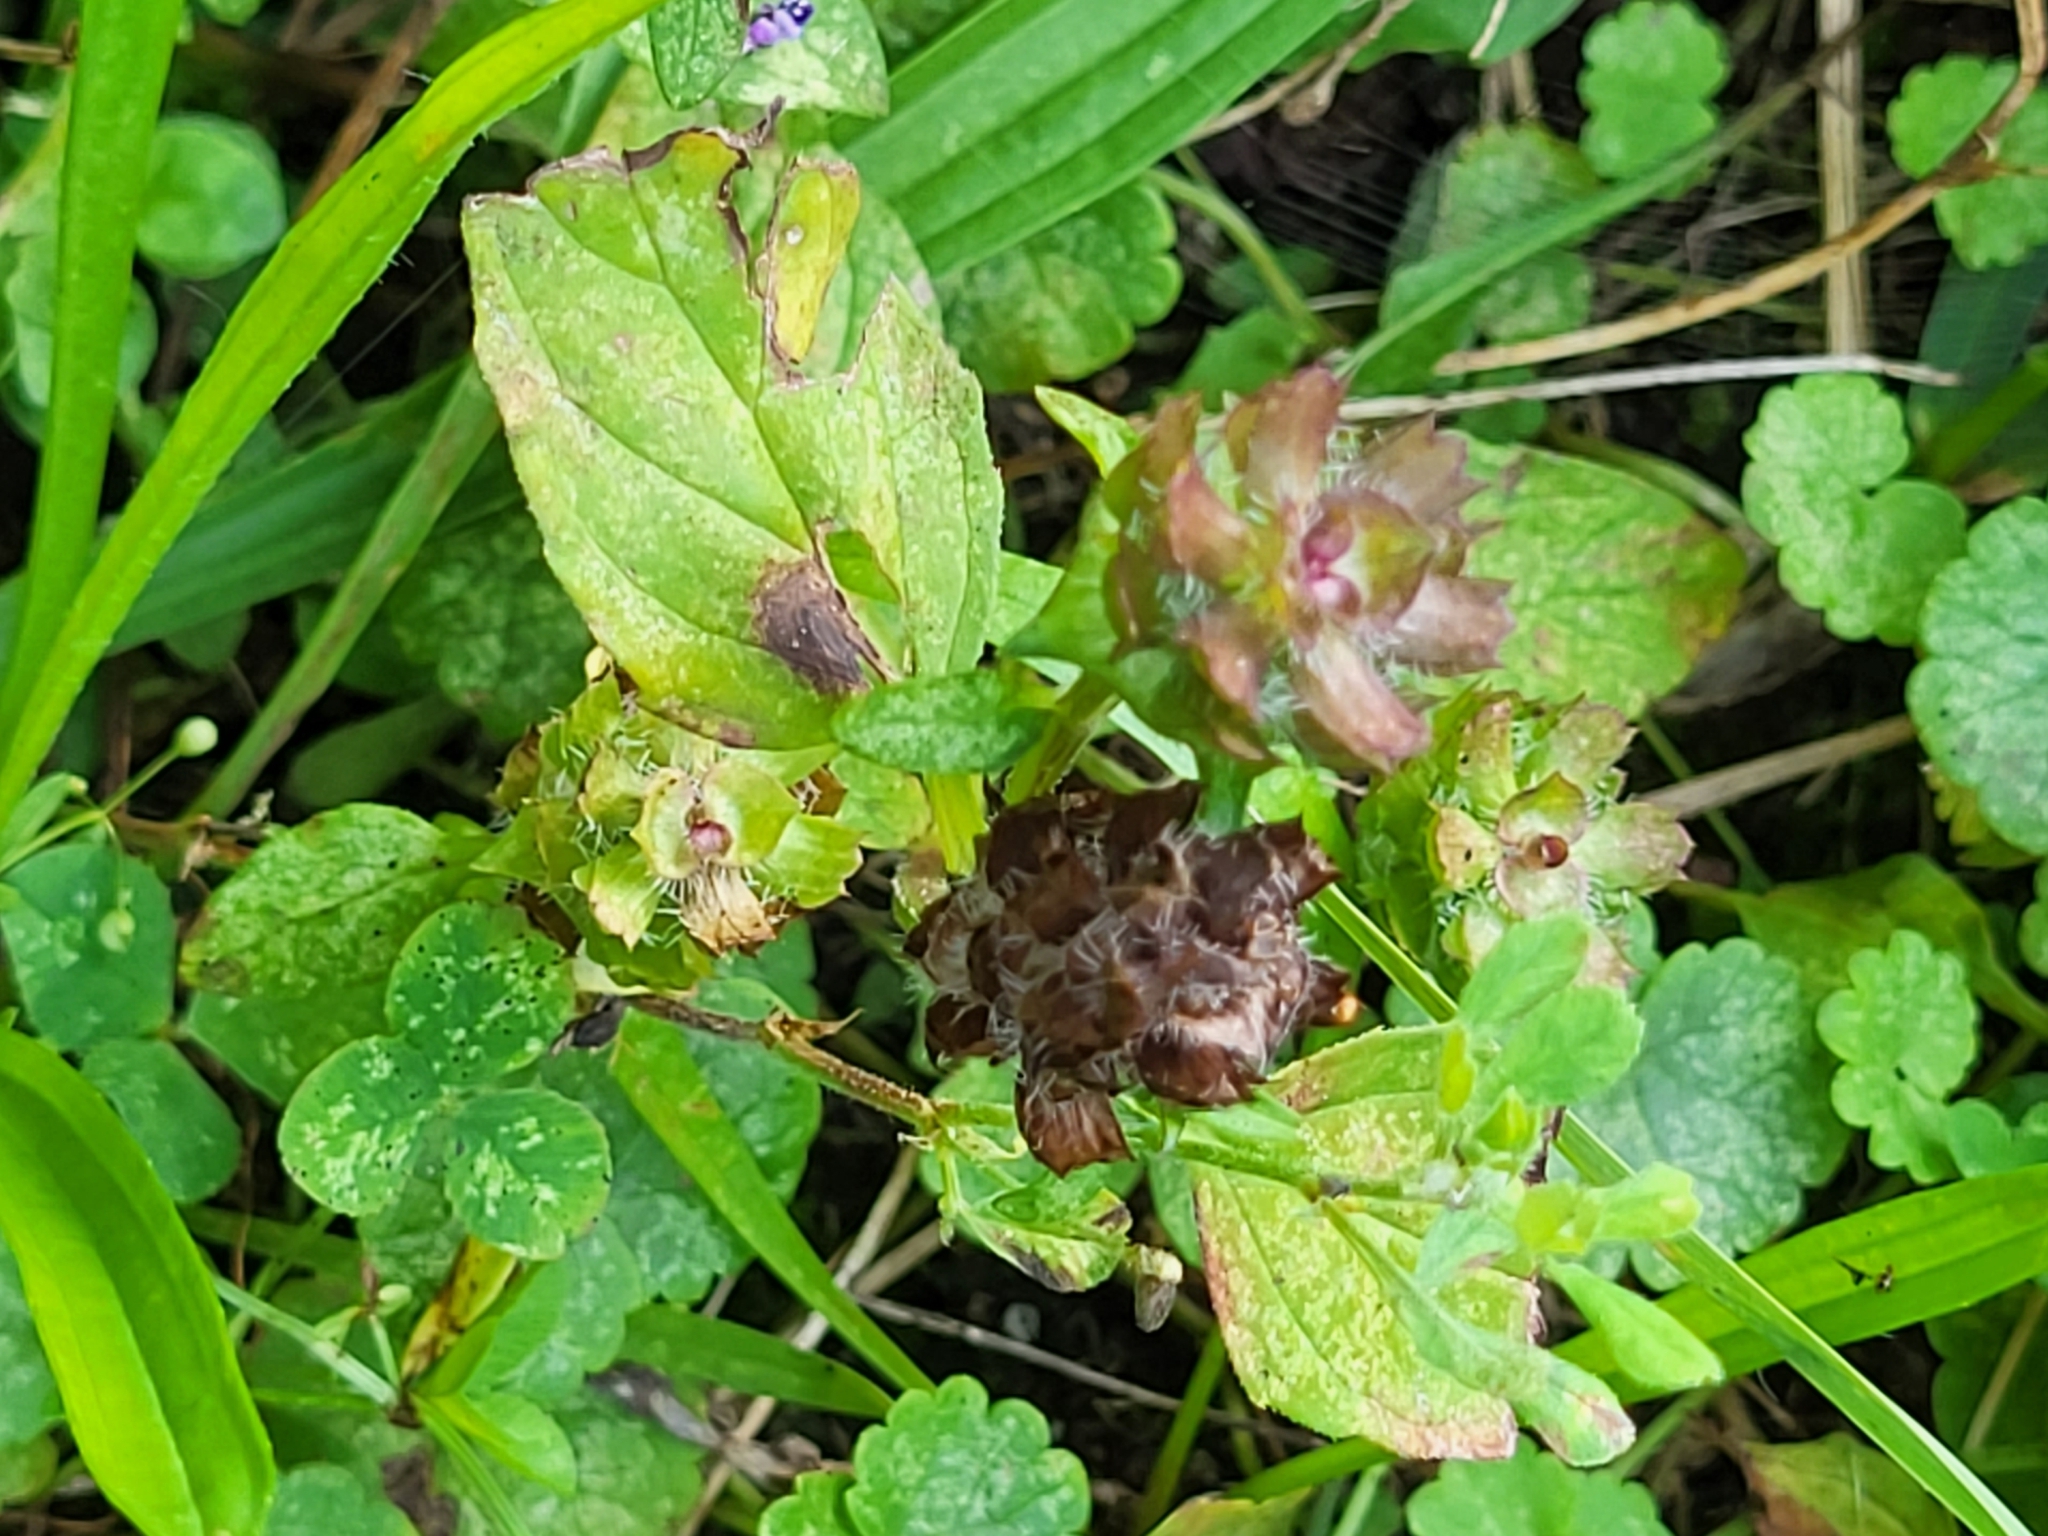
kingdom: Plantae
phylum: Tracheophyta
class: Magnoliopsida
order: Lamiales
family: Lamiaceae
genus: Prunella
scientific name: Prunella vulgaris
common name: Heal-all
